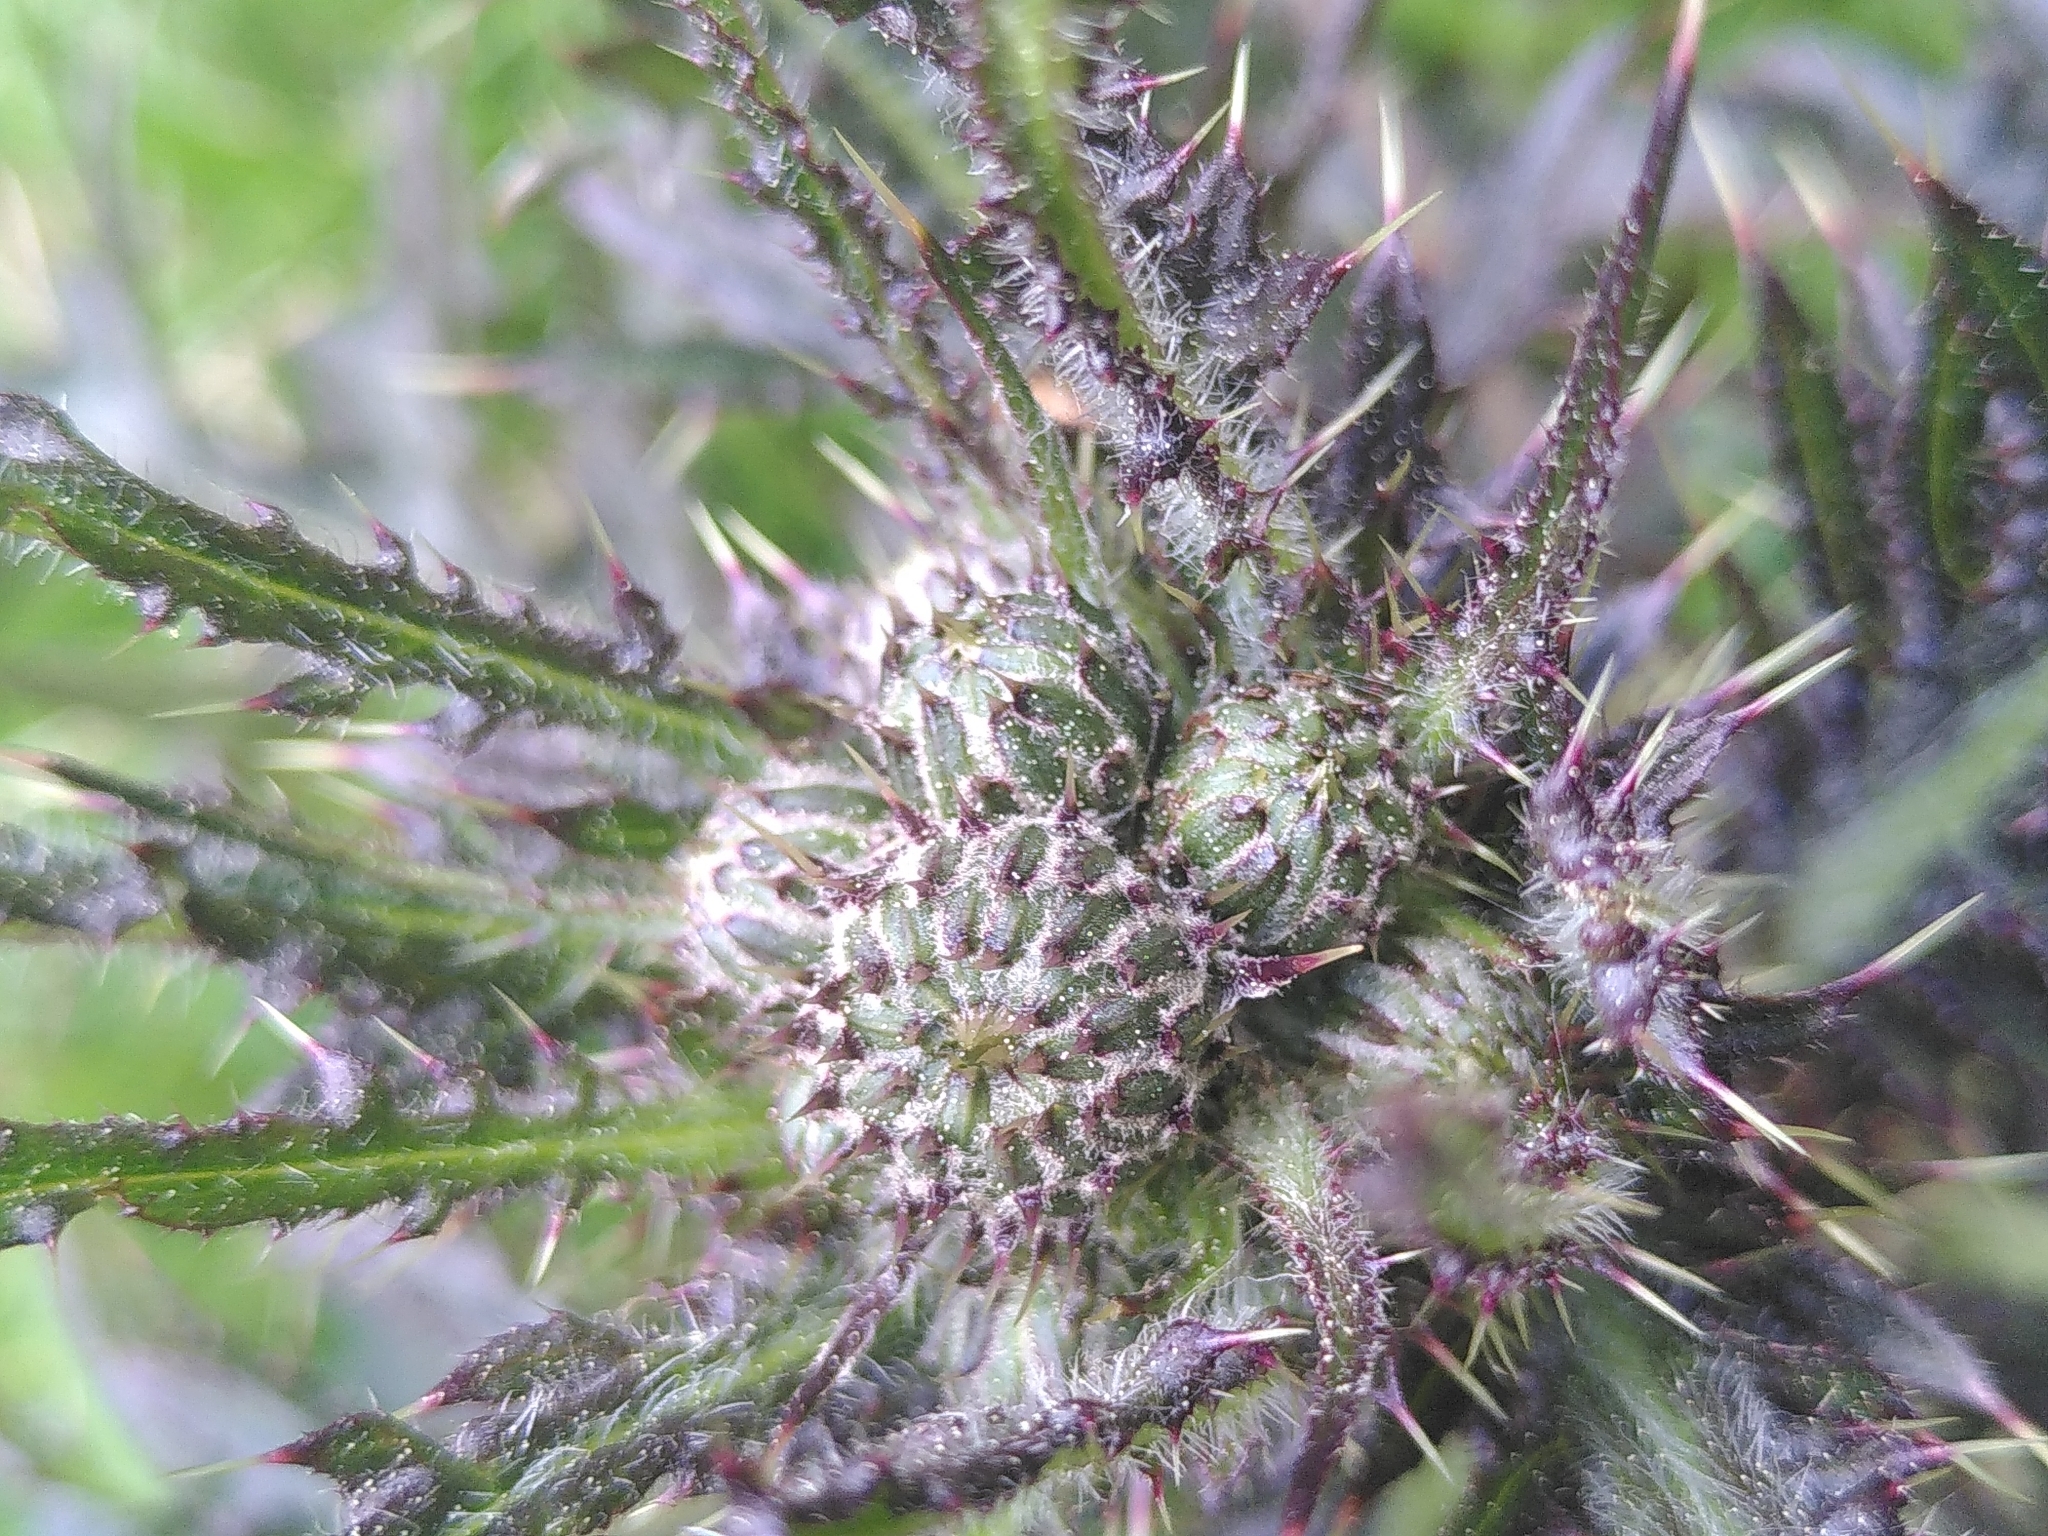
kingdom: Plantae
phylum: Tracheophyta
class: Magnoliopsida
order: Asterales
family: Asteraceae
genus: Cirsium
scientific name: Cirsium palustre
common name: Marsh thistle
